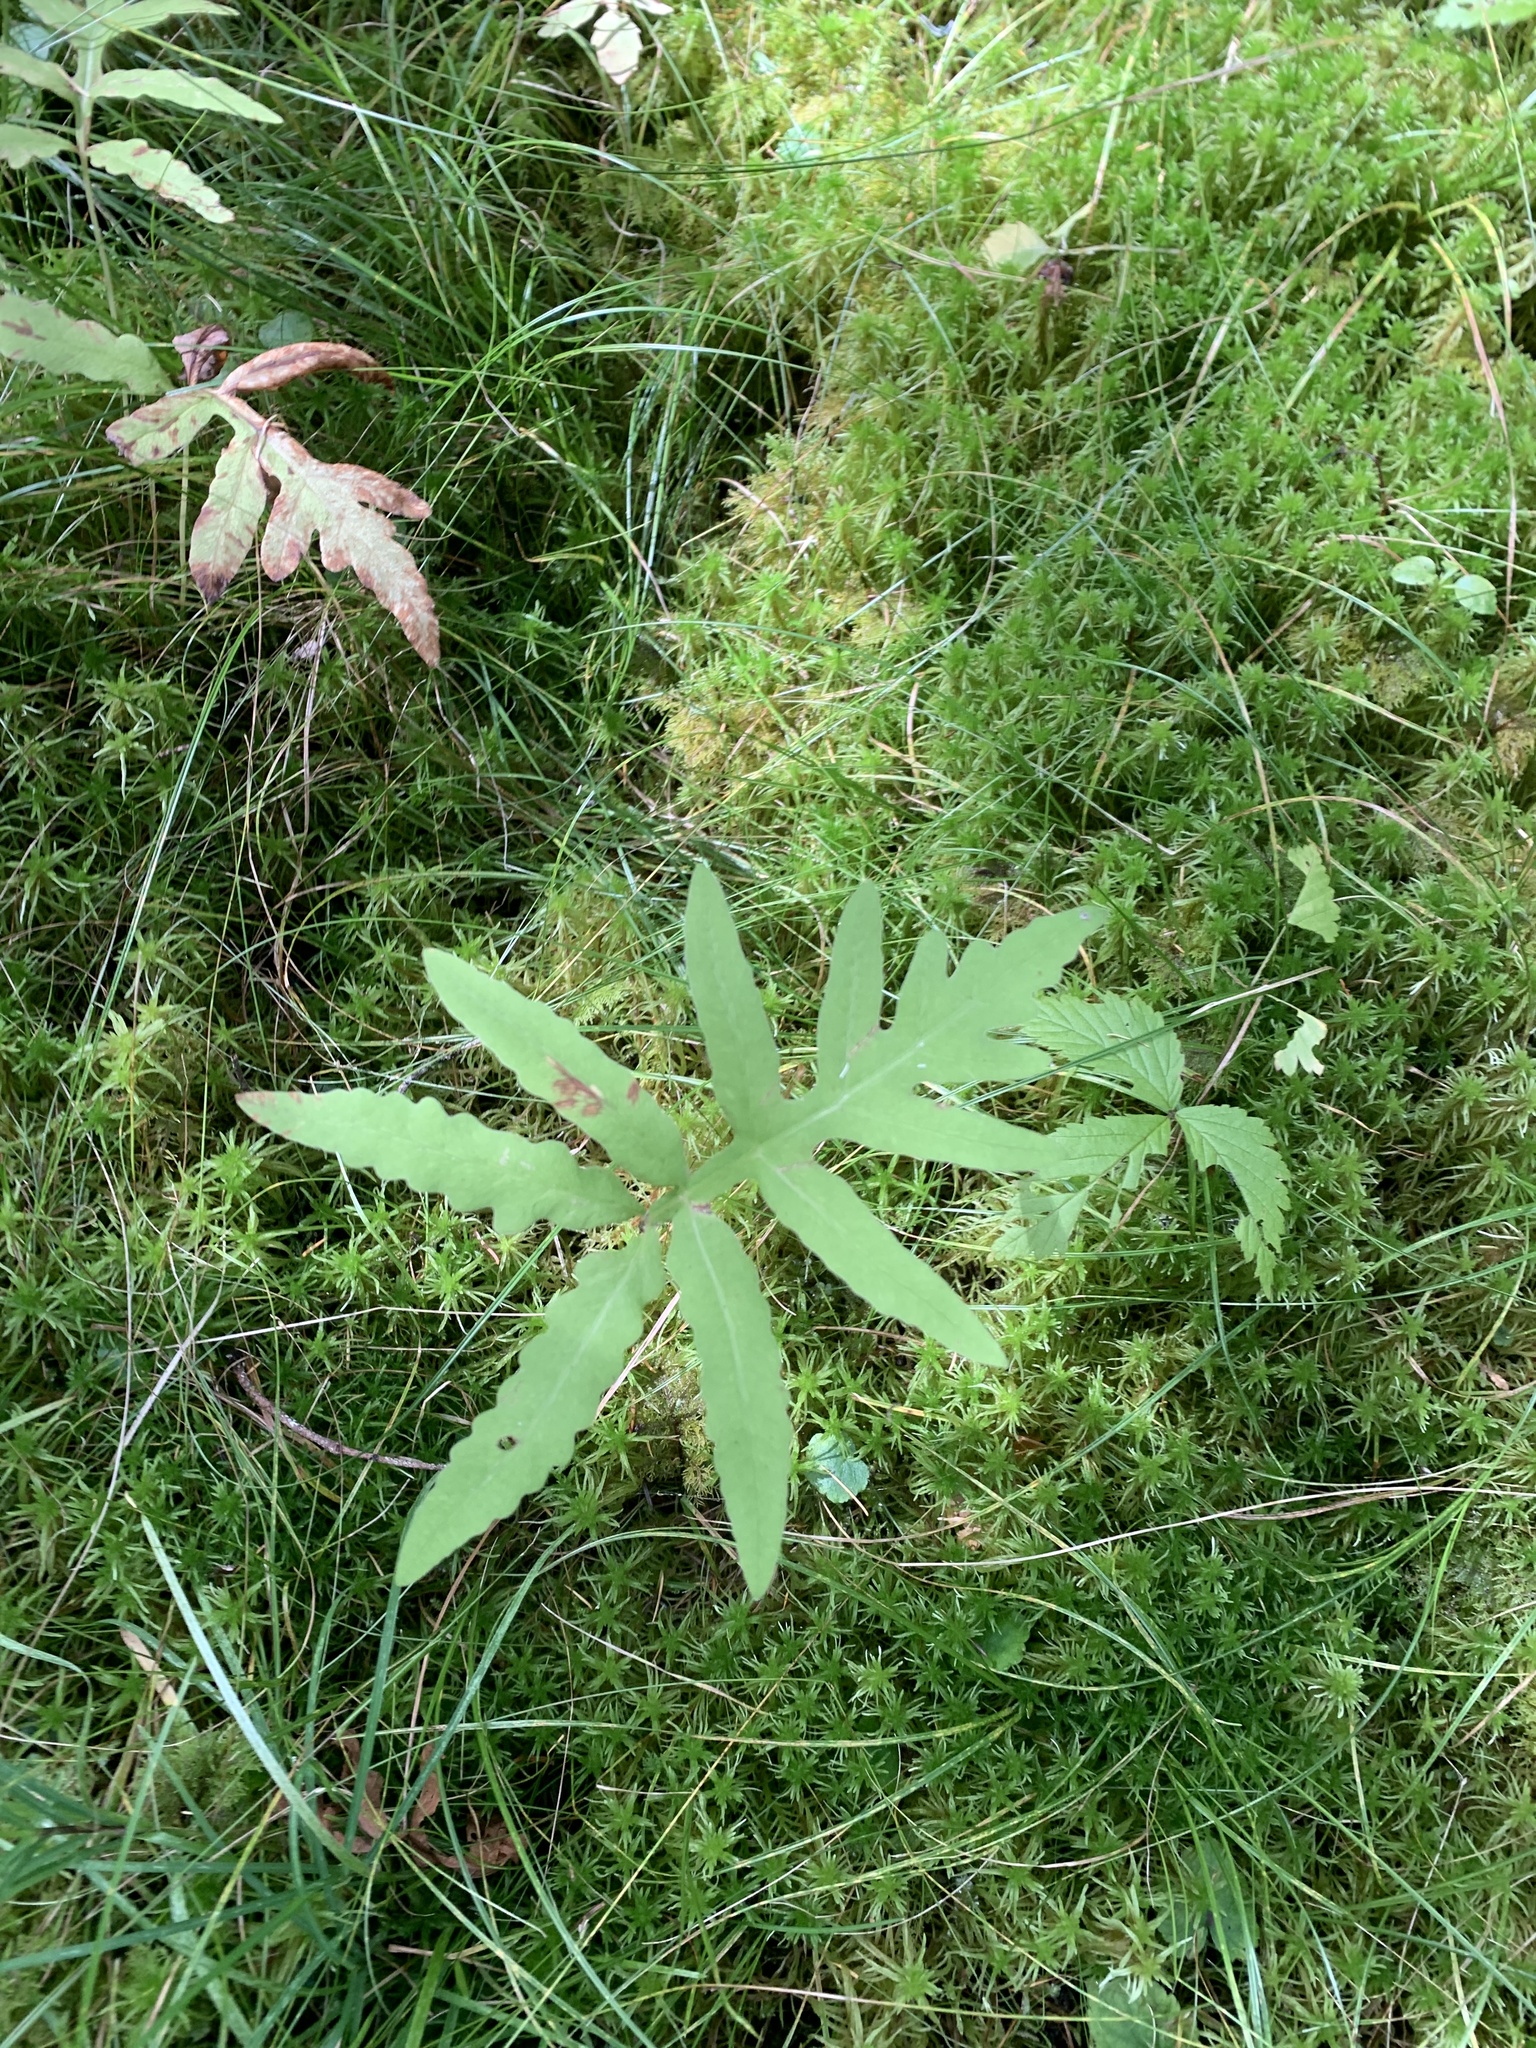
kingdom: Plantae
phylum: Tracheophyta
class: Polypodiopsida
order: Polypodiales
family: Onocleaceae
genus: Onoclea
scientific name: Onoclea sensibilis
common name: Sensitive fern
